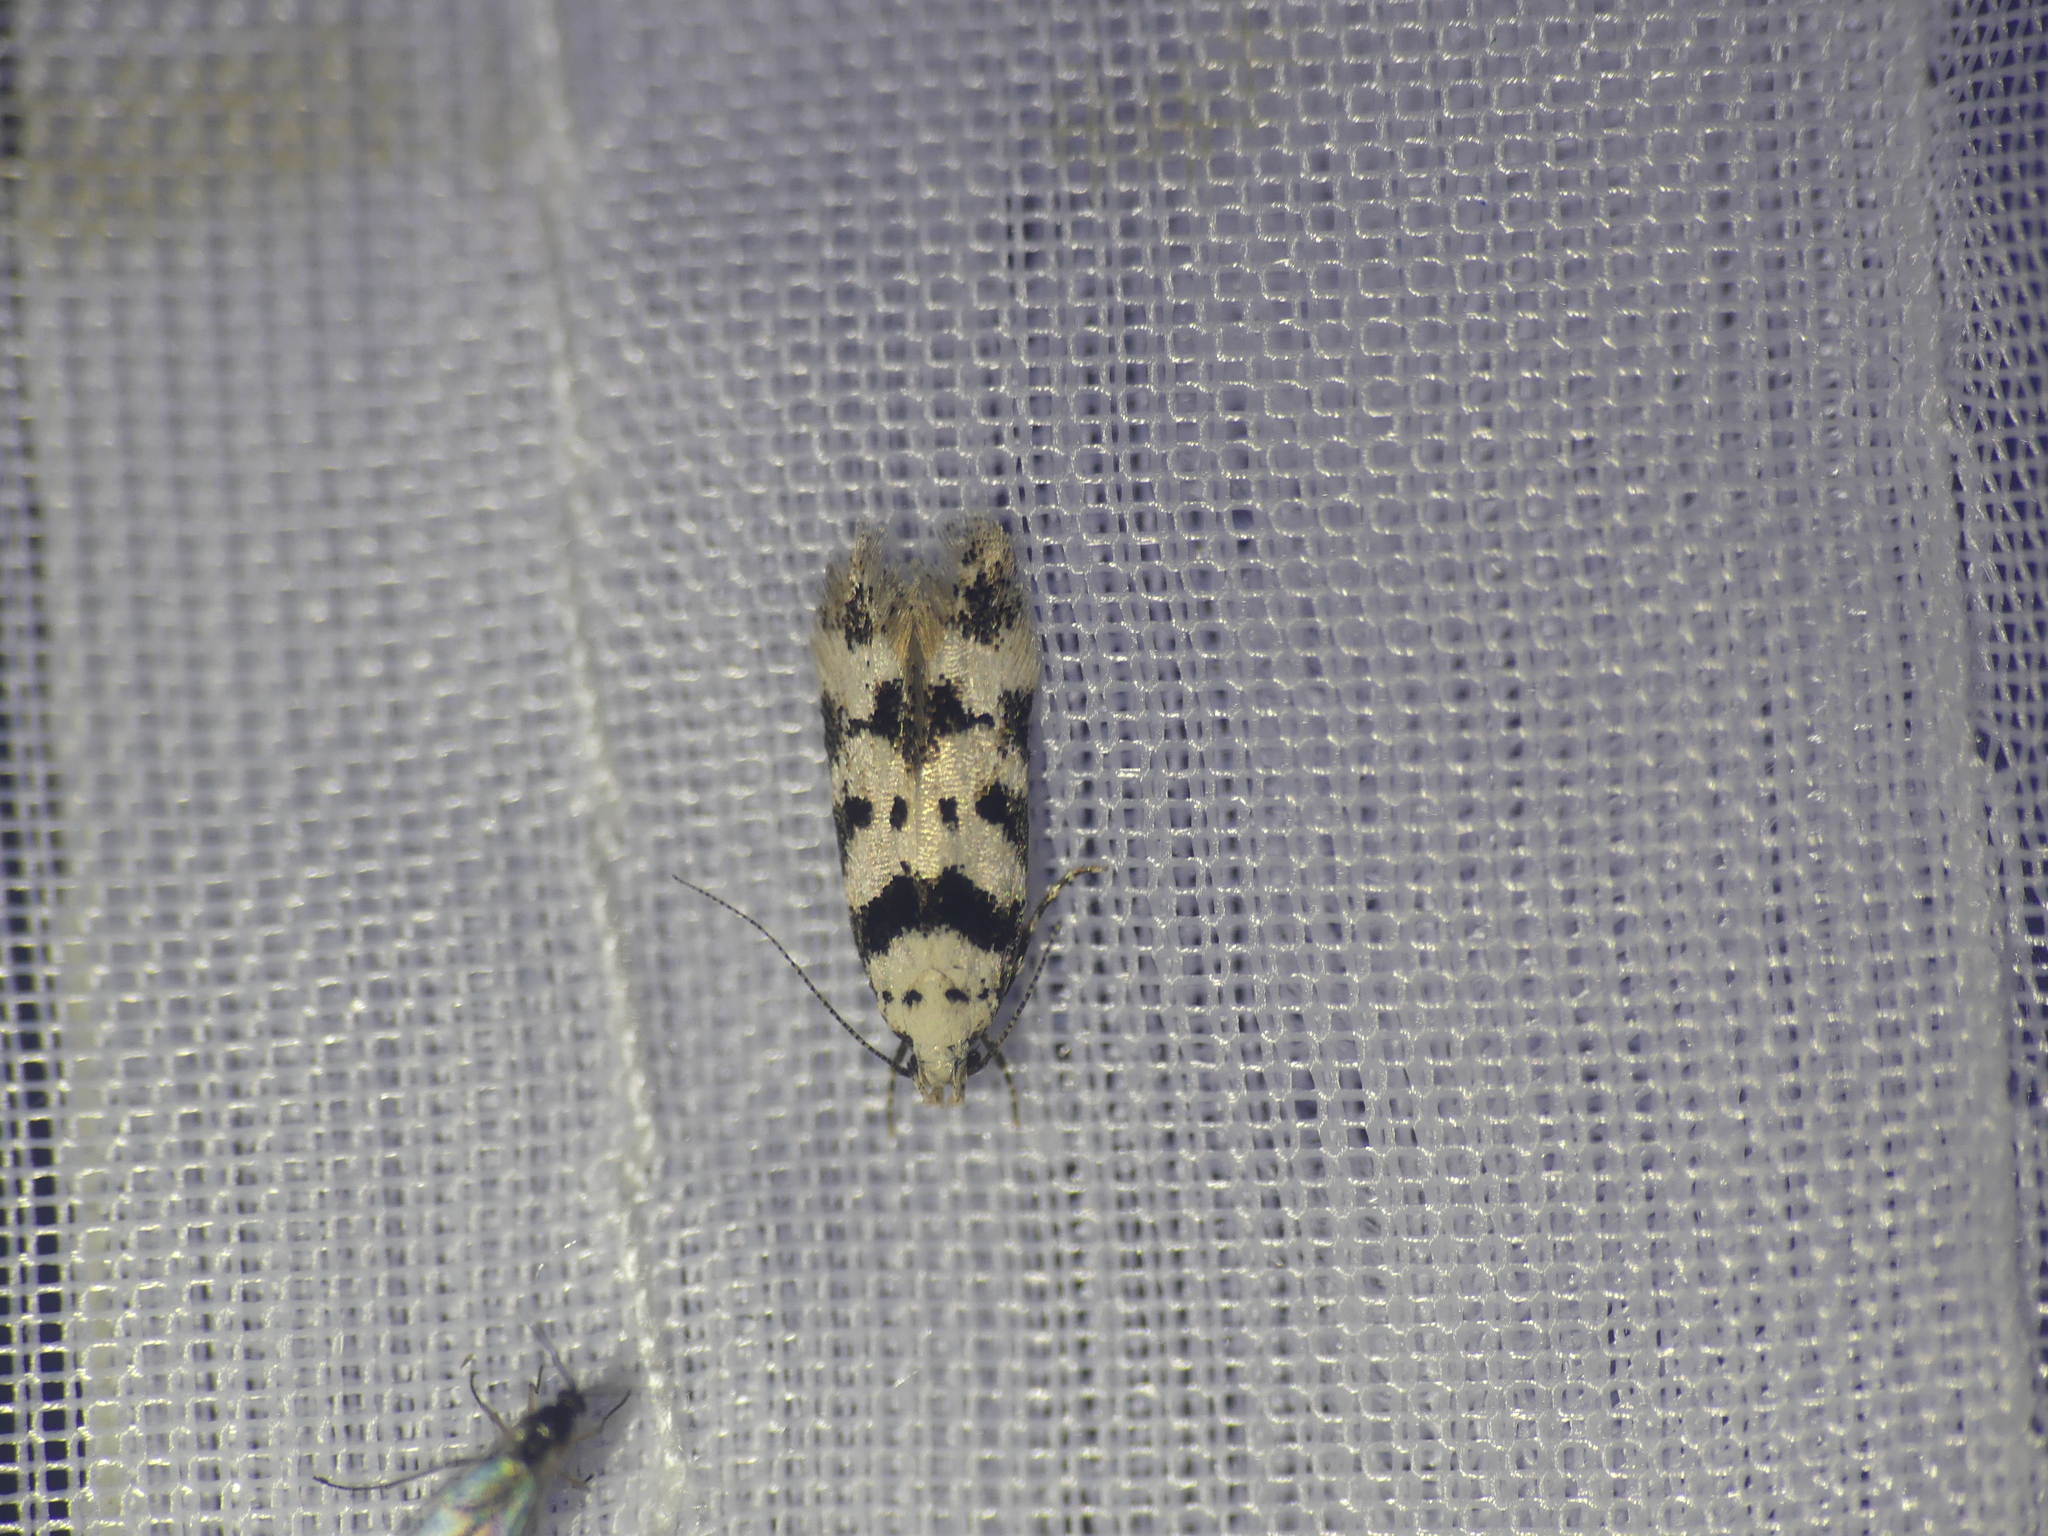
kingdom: Animalia
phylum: Arthropoda
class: Insecta
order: Lepidoptera
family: Gelechiidae
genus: Pseudotelphusa
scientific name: Pseudotelphusa scalella
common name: Black-spotted groundling
